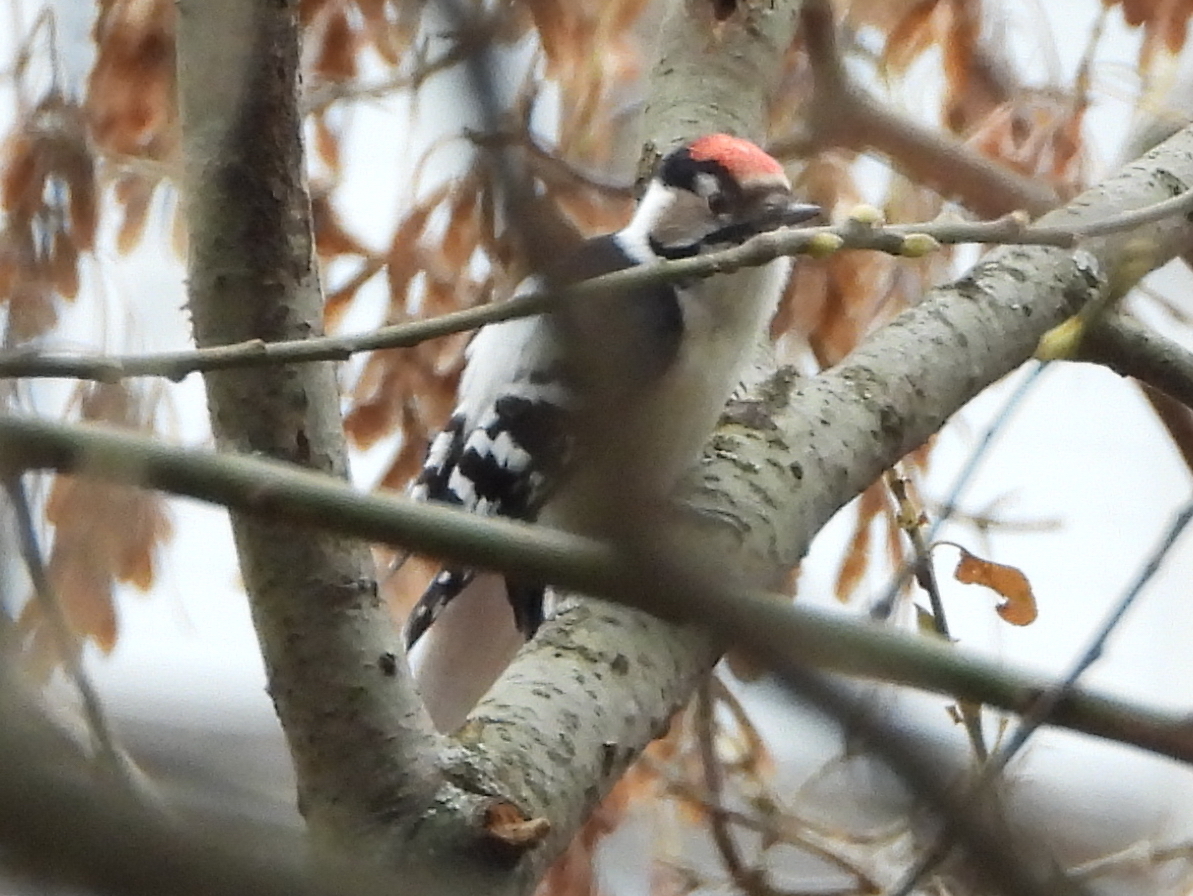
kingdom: Animalia
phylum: Chordata
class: Aves
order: Piciformes
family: Picidae
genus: Dryobates
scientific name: Dryobates minor
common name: Lesser spotted woodpecker
